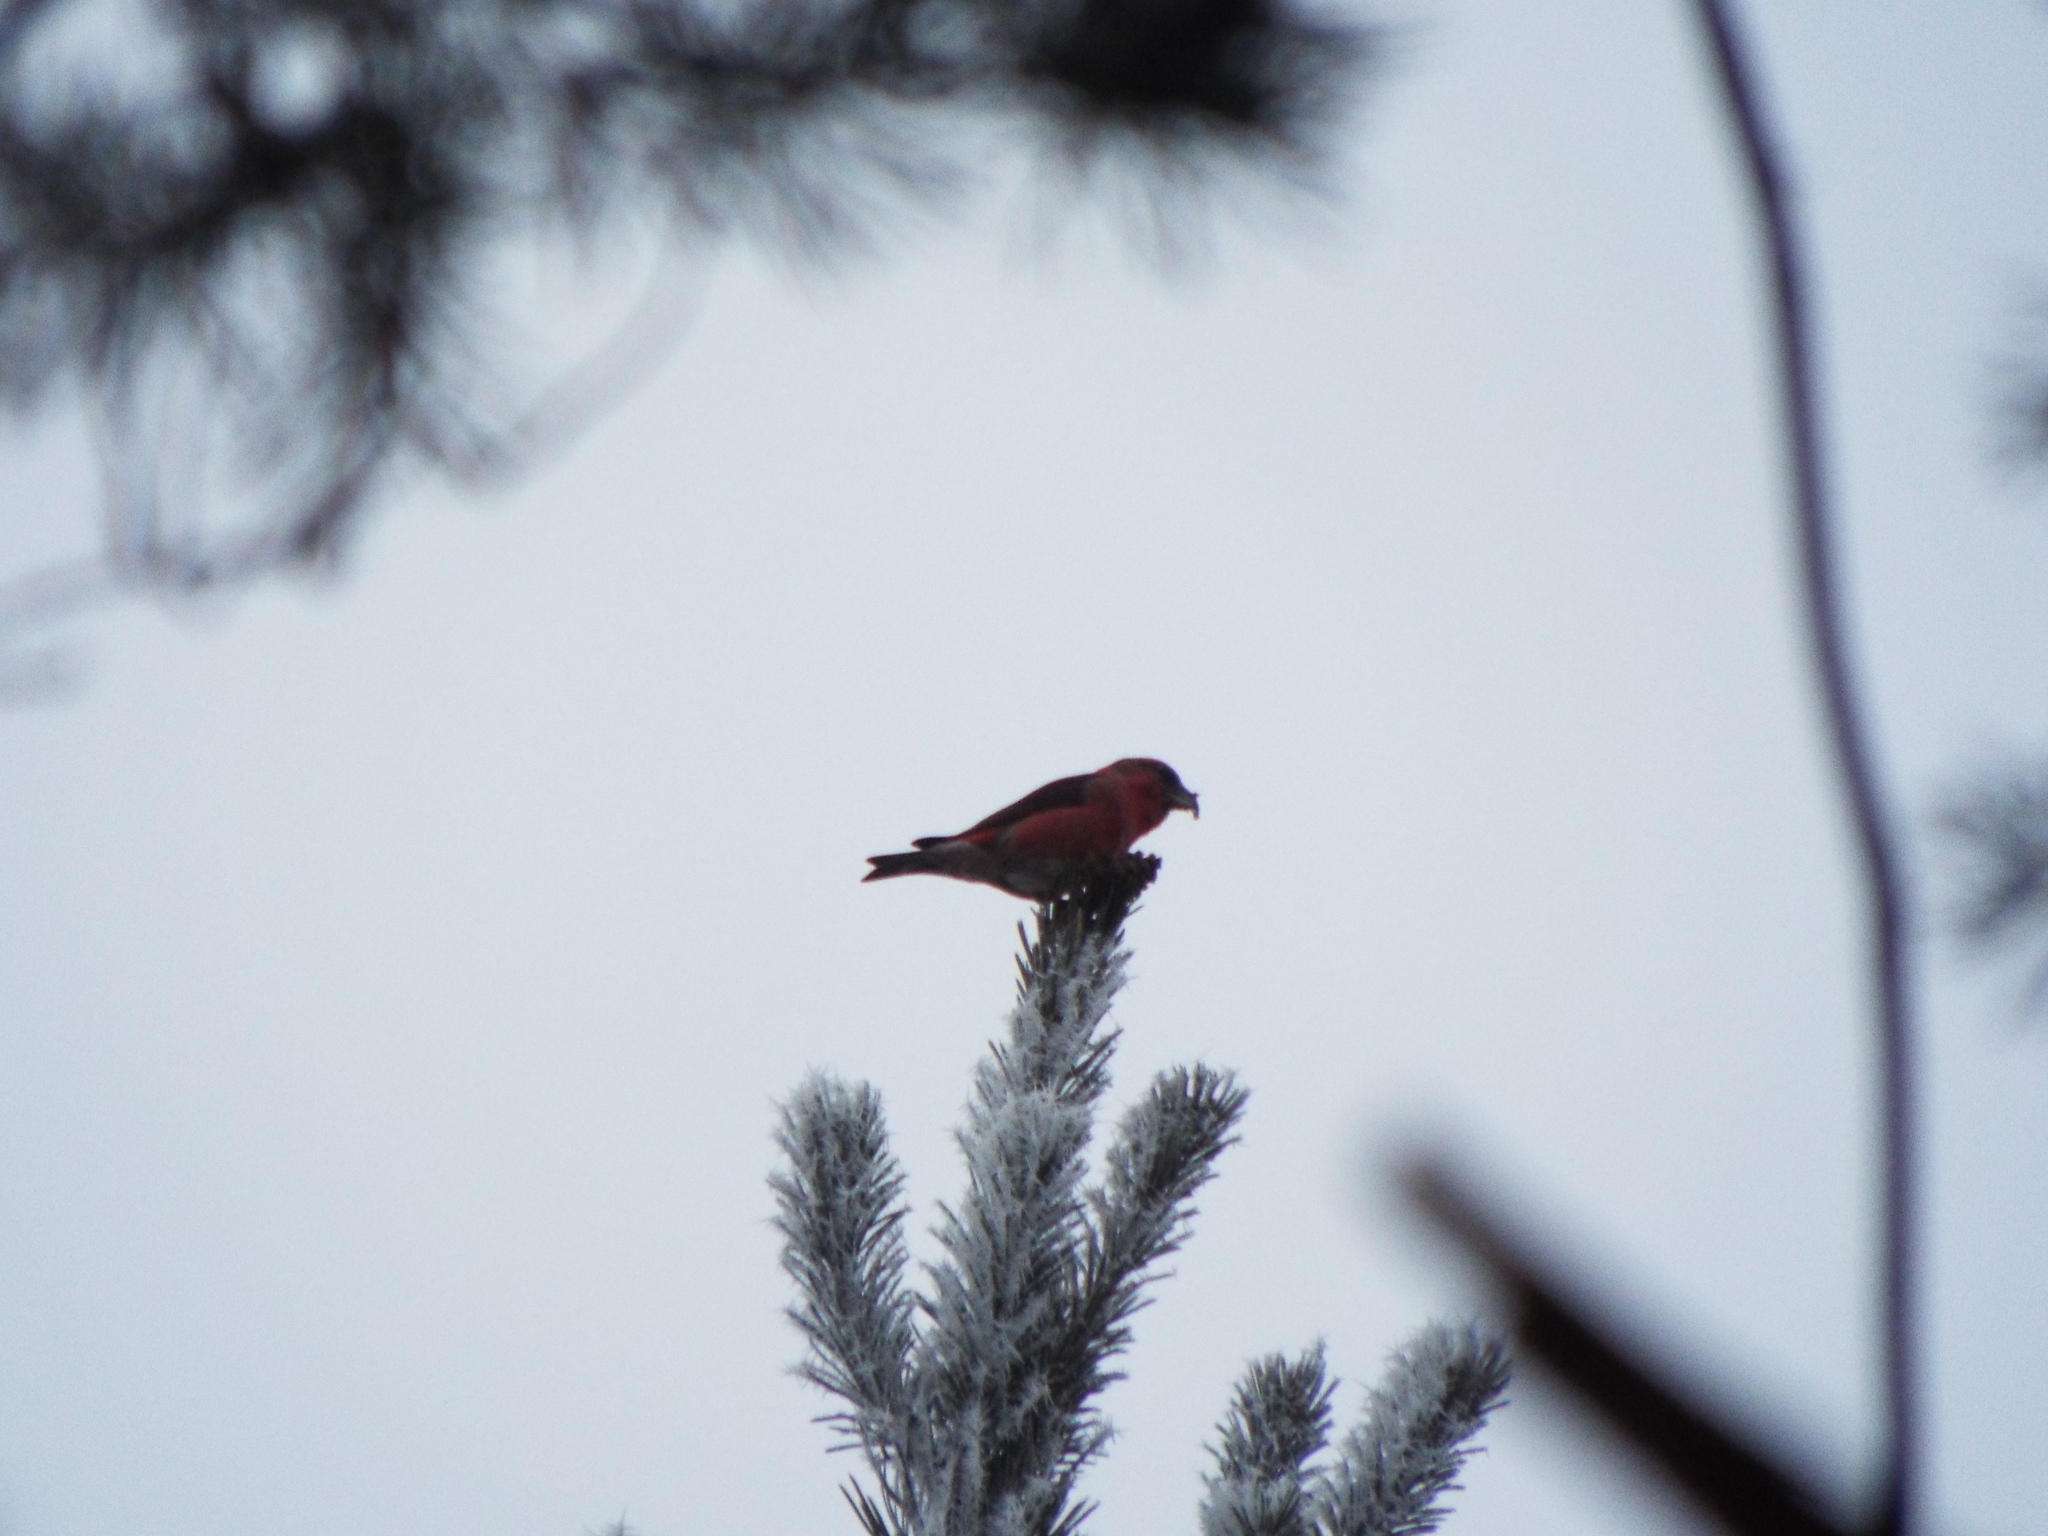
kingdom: Animalia
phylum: Chordata
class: Aves
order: Passeriformes
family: Fringillidae
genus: Loxia
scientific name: Loxia curvirostra
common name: Red crossbill
